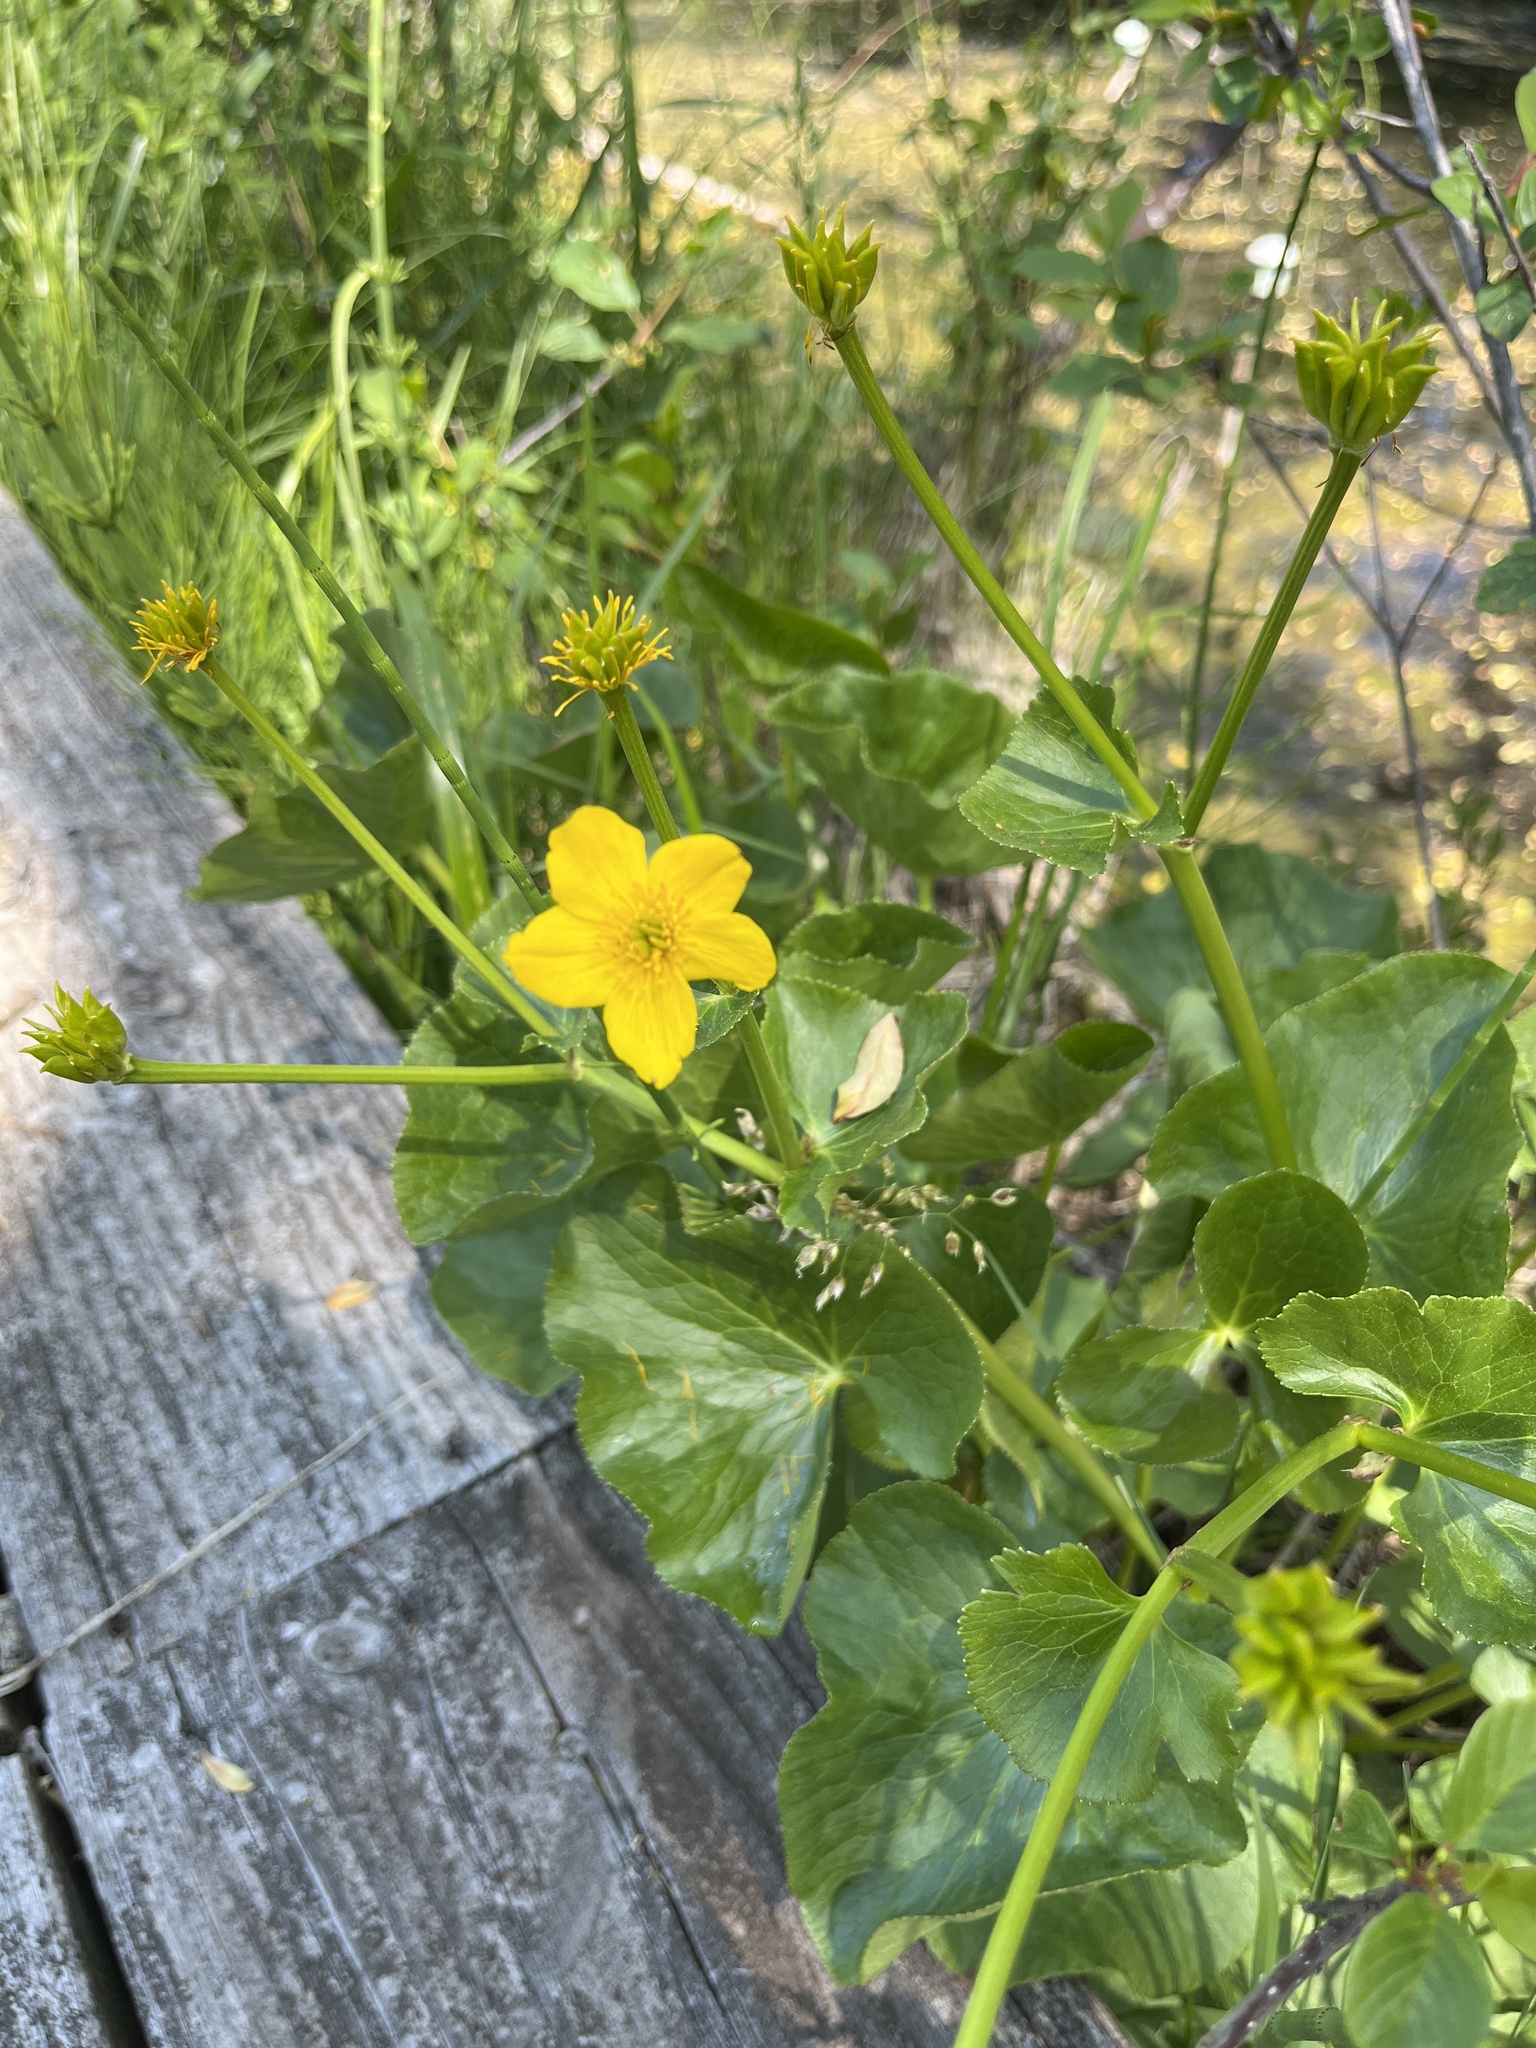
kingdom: Plantae
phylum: Tracheophyta
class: Magnoliopsida
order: Ranunculales
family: Ranunculaceae
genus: Caltha
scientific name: Caltha palustris
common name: Marsh marigold
